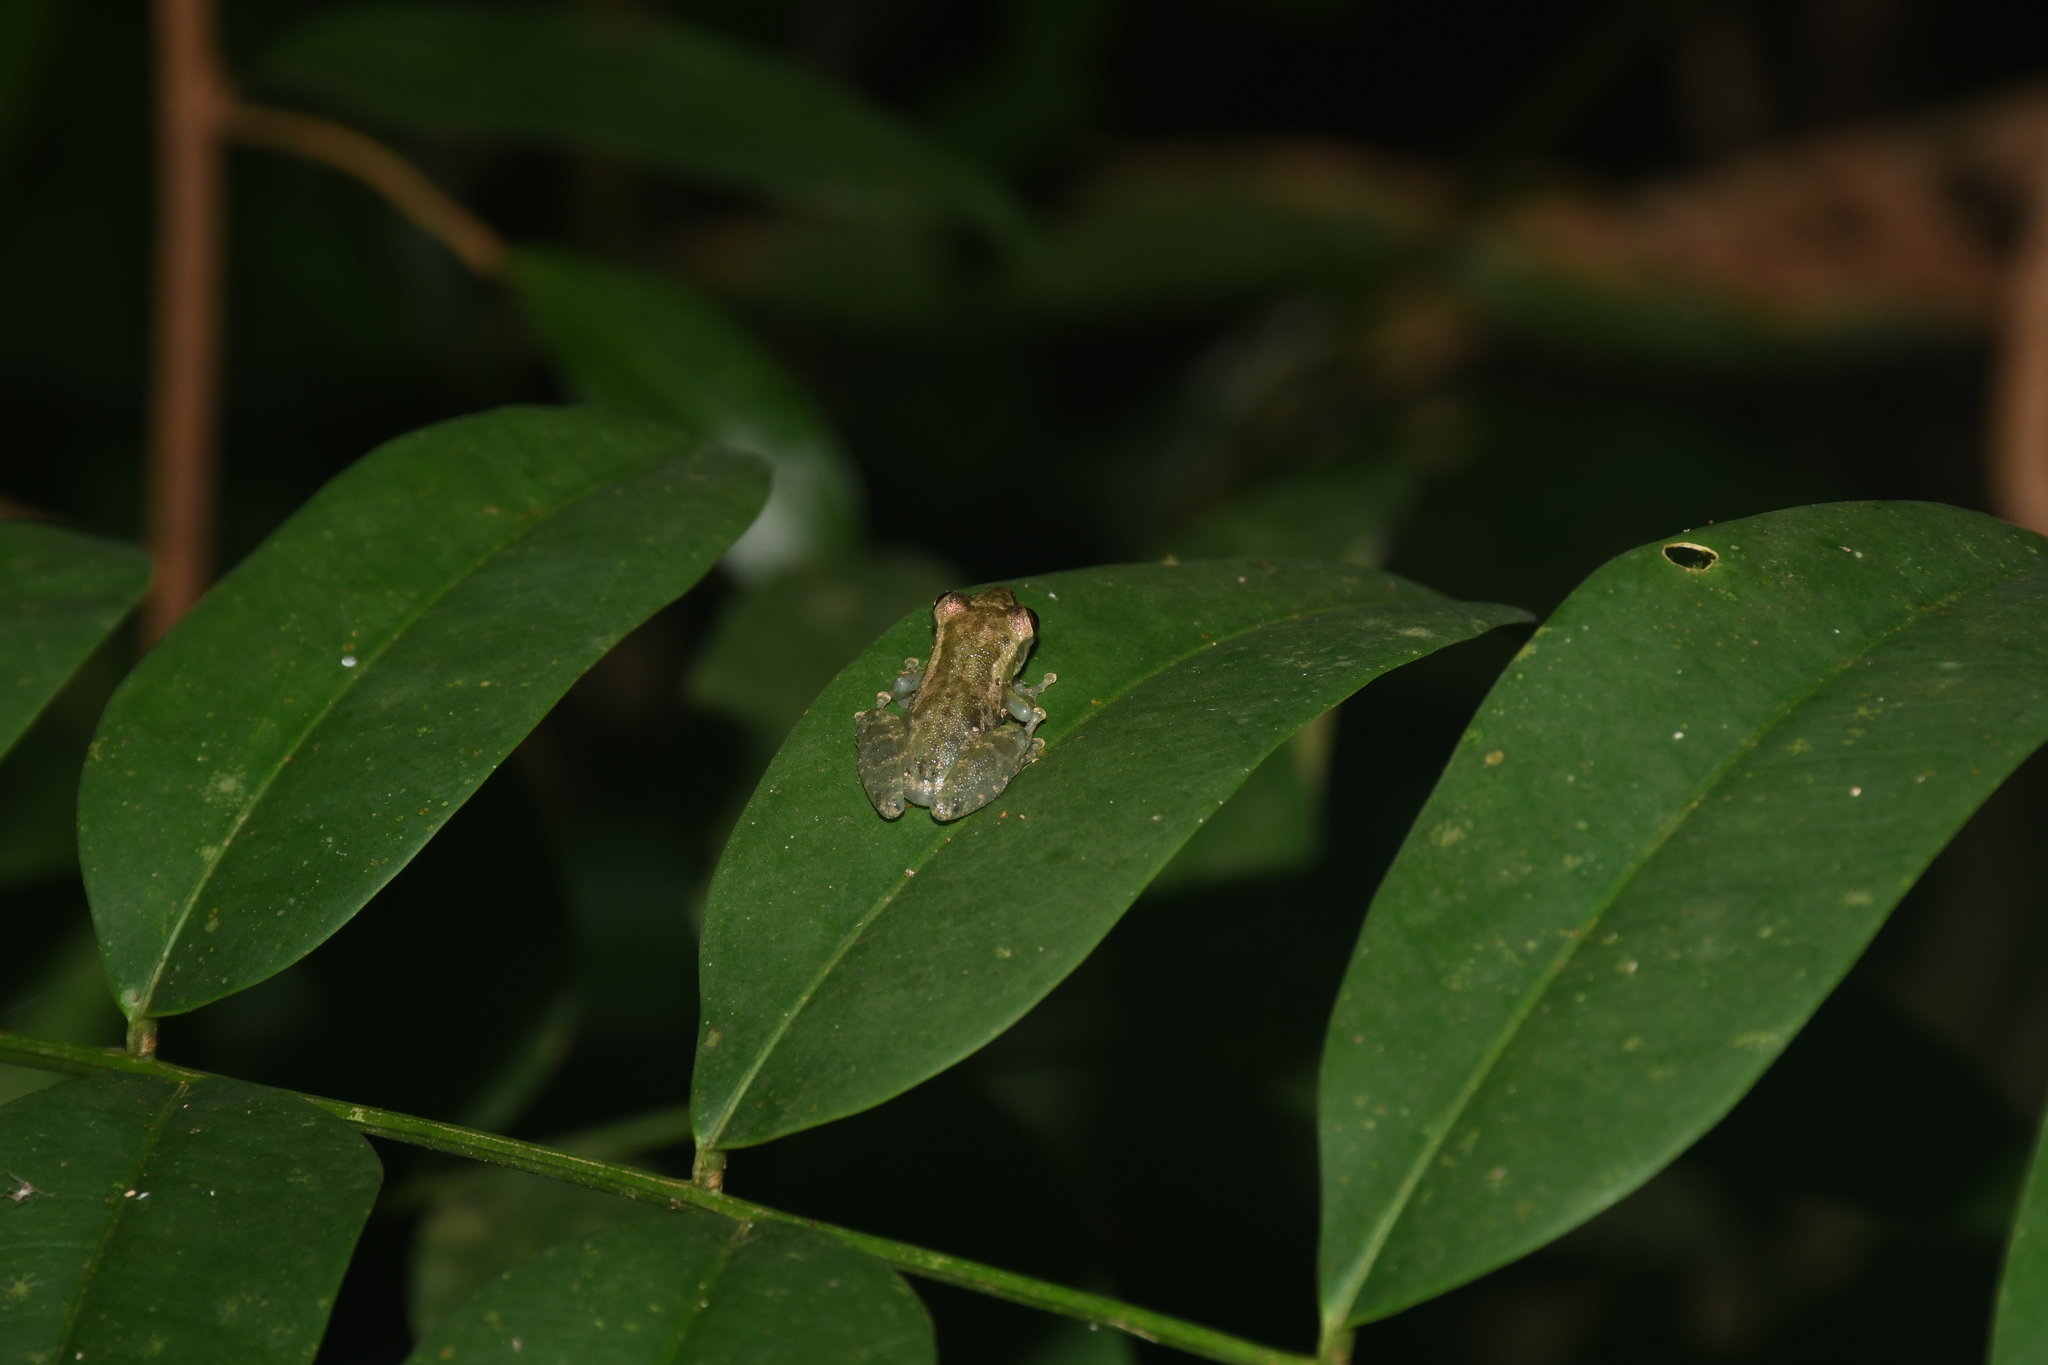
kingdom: Animalia
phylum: Chordata
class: Amphibia
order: Anura
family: Hylidae
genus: Scinax
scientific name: Scinax ruber
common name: Red snouted treefrog
